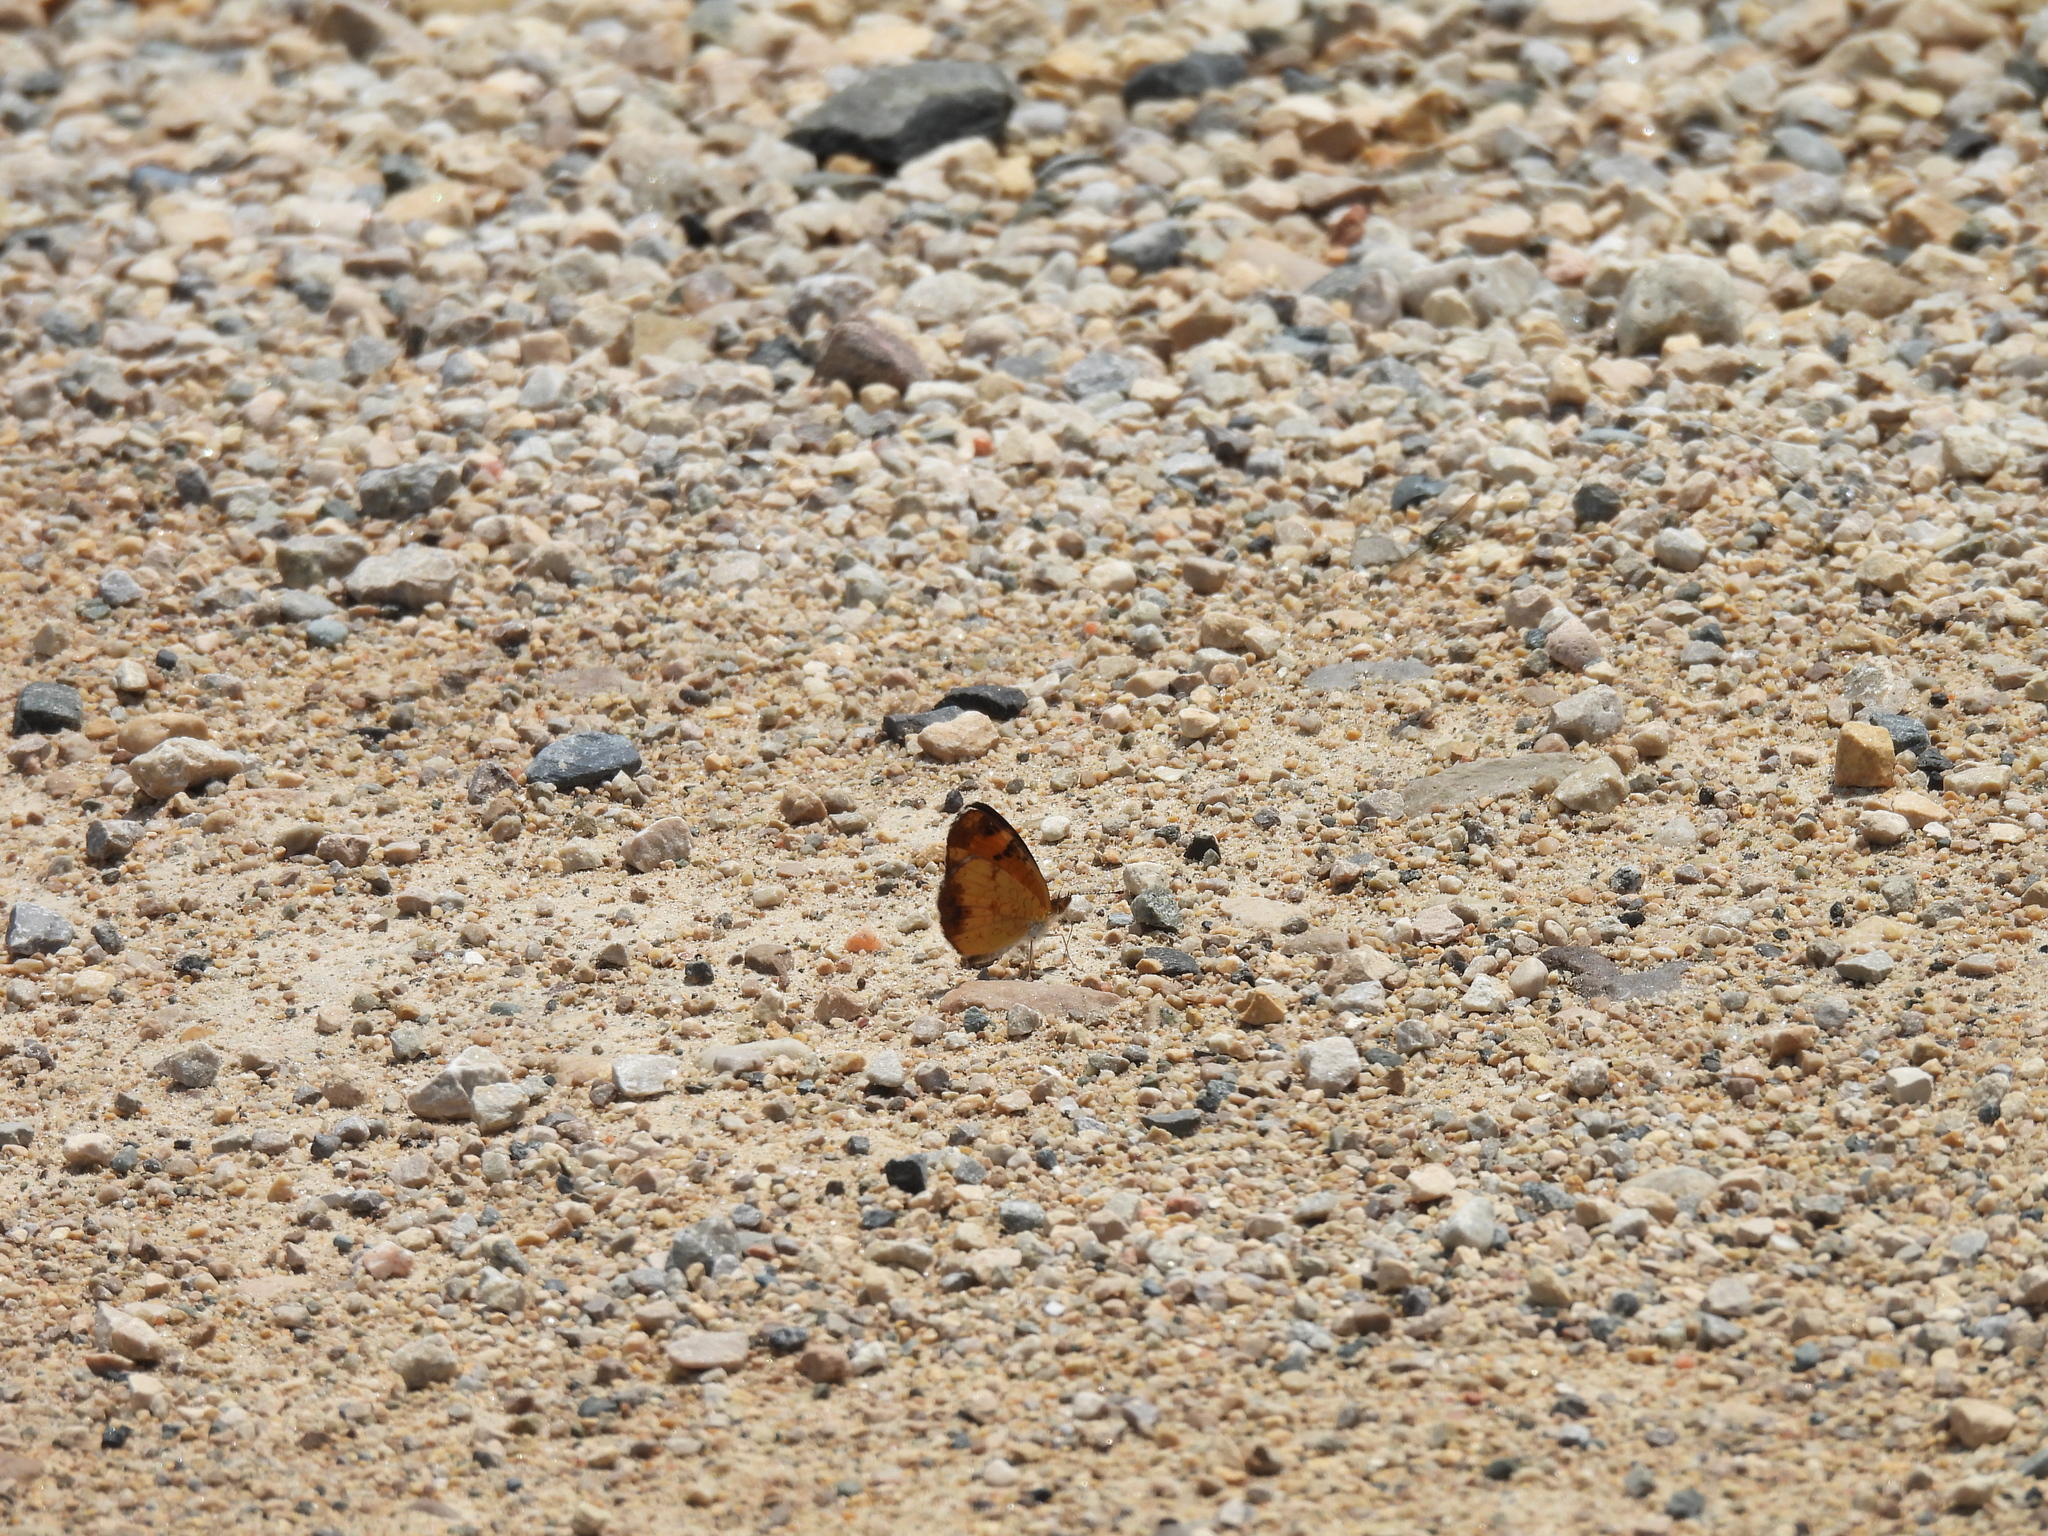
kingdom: Animalia
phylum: Arthropoda
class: Insecta
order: Lepidoptera
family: Nymphalidae
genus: Phyciodes
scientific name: Phyciodes tharos
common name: Pearl crescent
